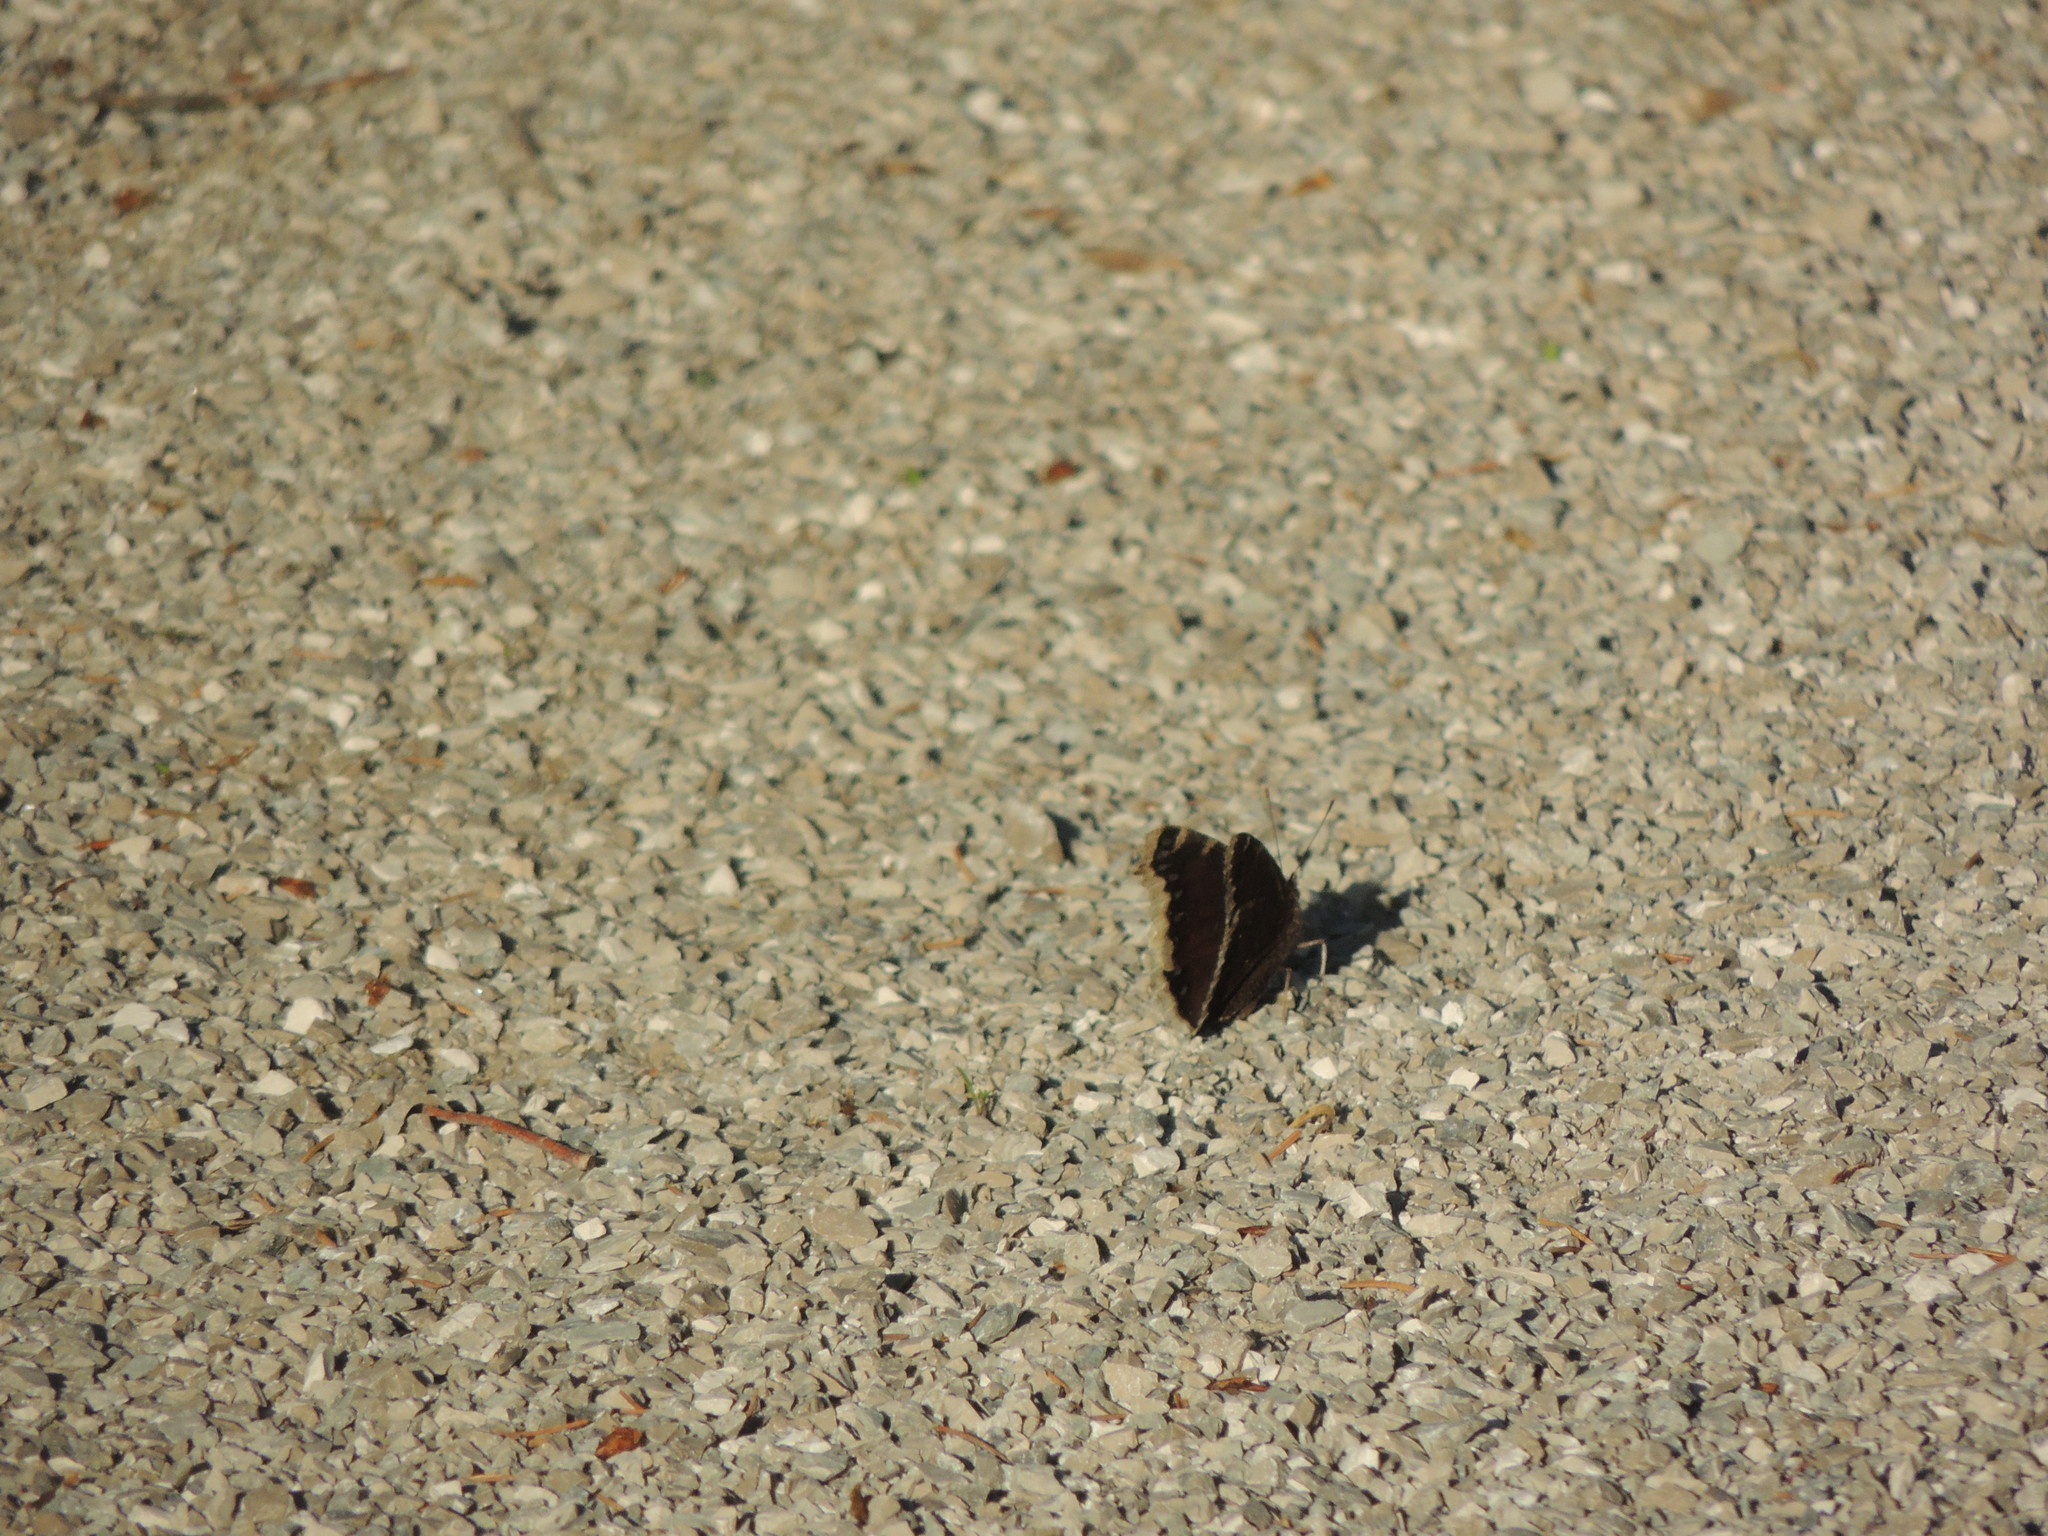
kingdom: Animalia
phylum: Arthropoda
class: Insecta
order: Lepidoptera
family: Nymphalidae
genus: Nymphalis
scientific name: Nymphalis antiopa
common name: Camberwell beauty
